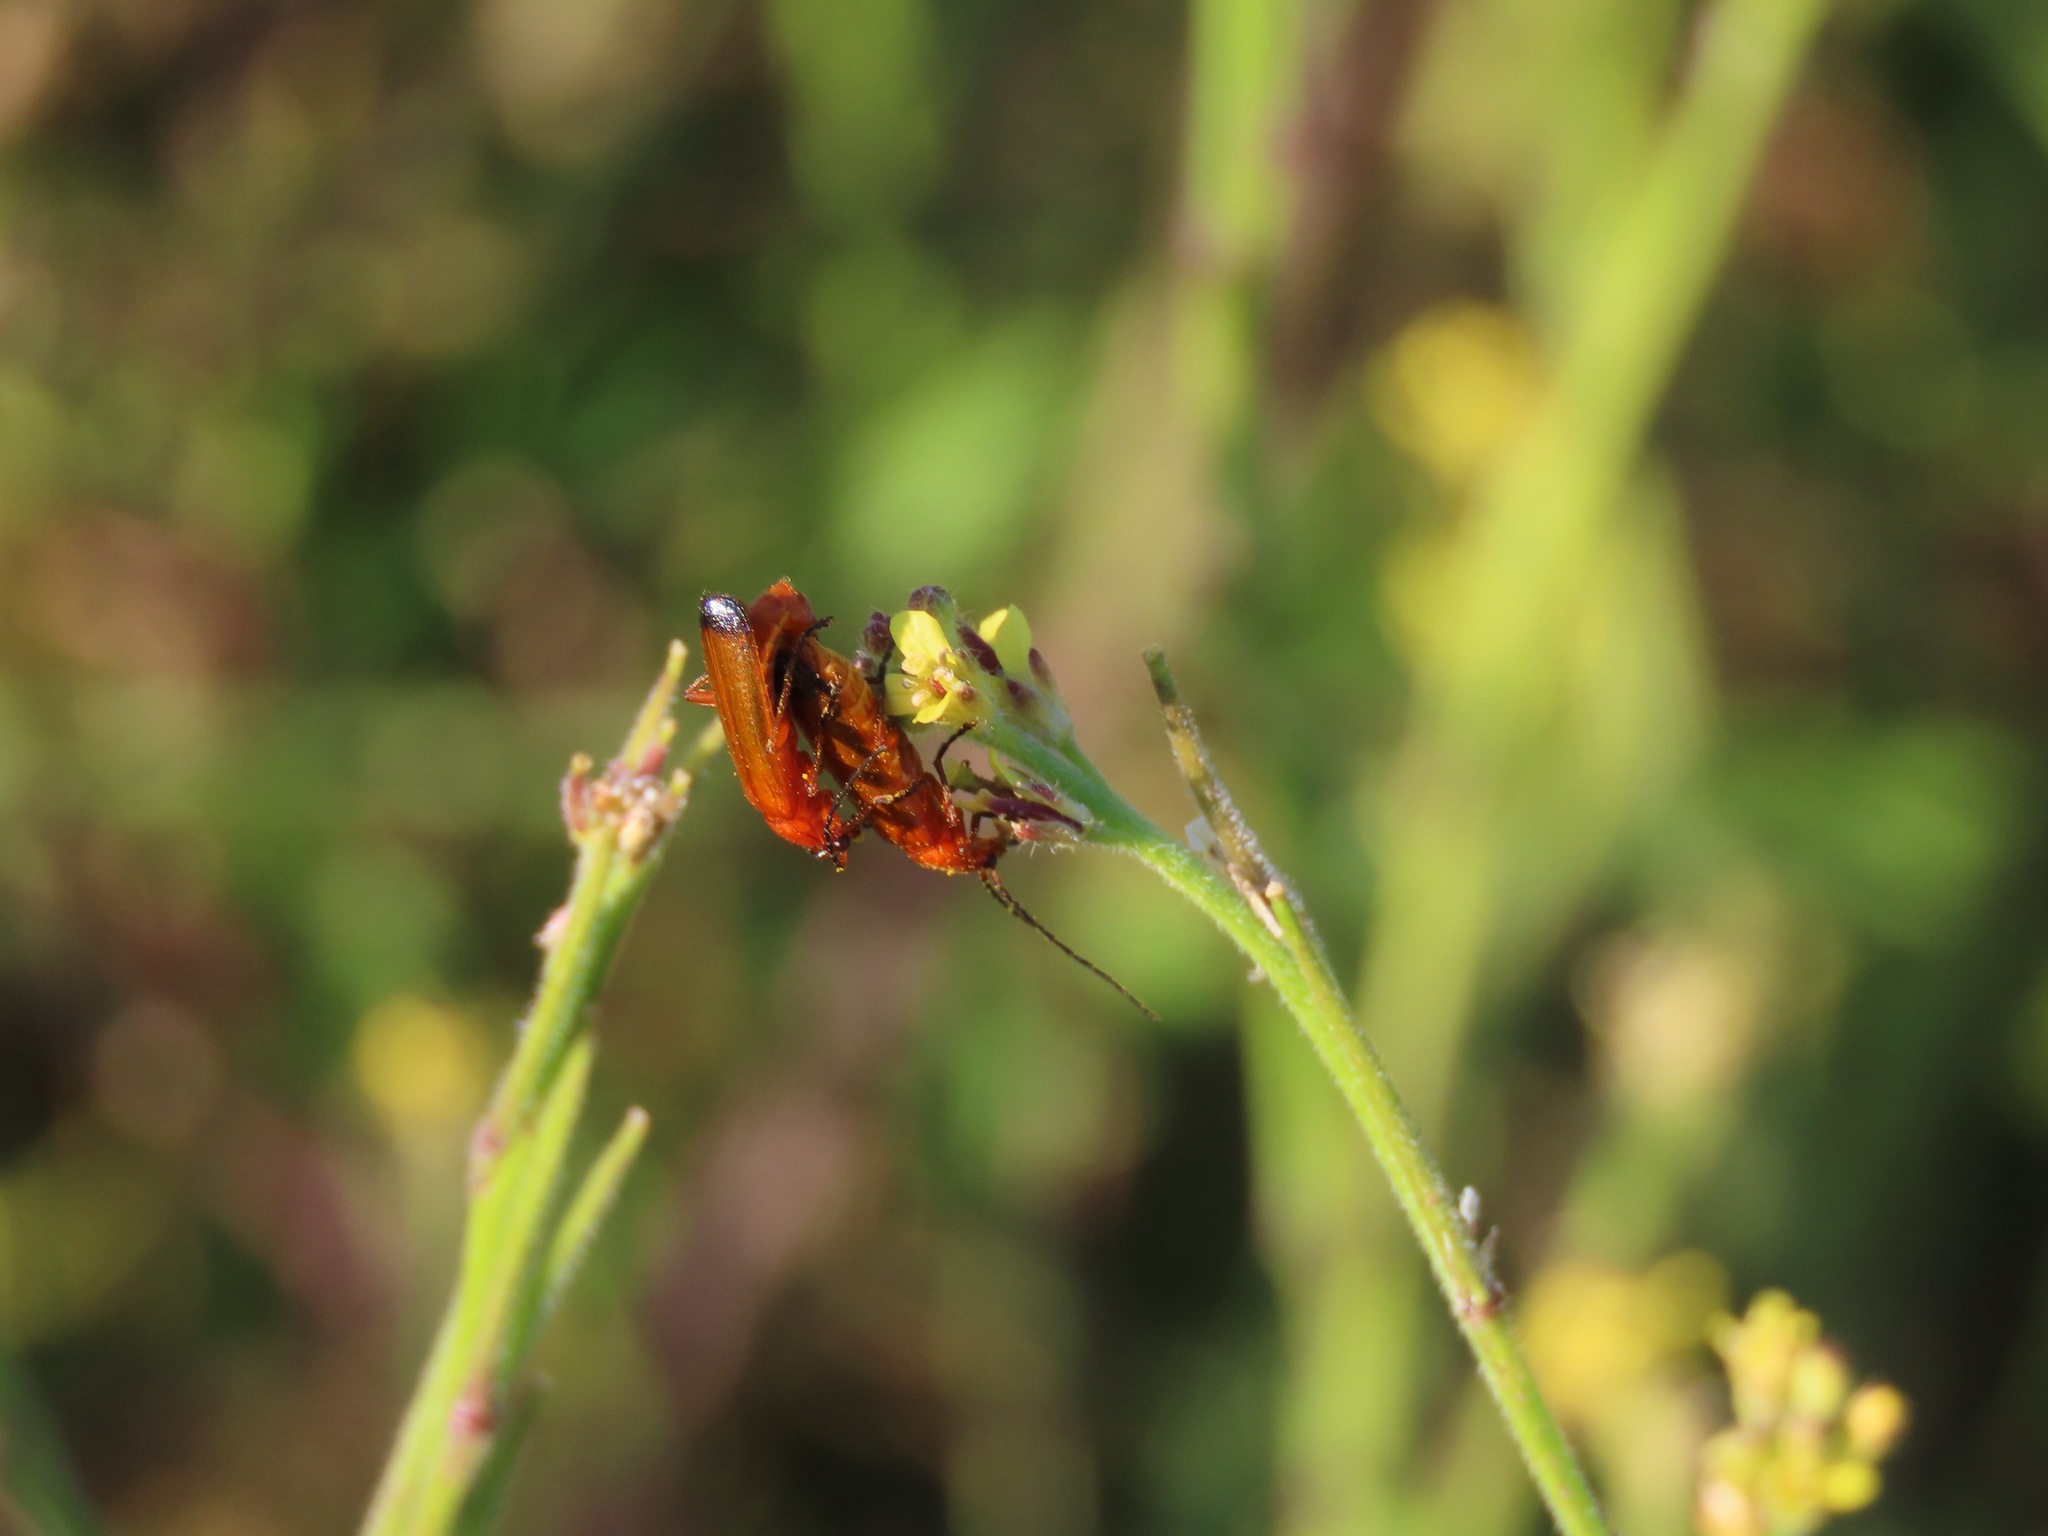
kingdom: Animalia
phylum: Arthropoda
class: Insecta
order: Coleoptera
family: Cantharidae
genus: Rhagonycha
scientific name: Rhagonycha fulva
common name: Common red soldier beetle
